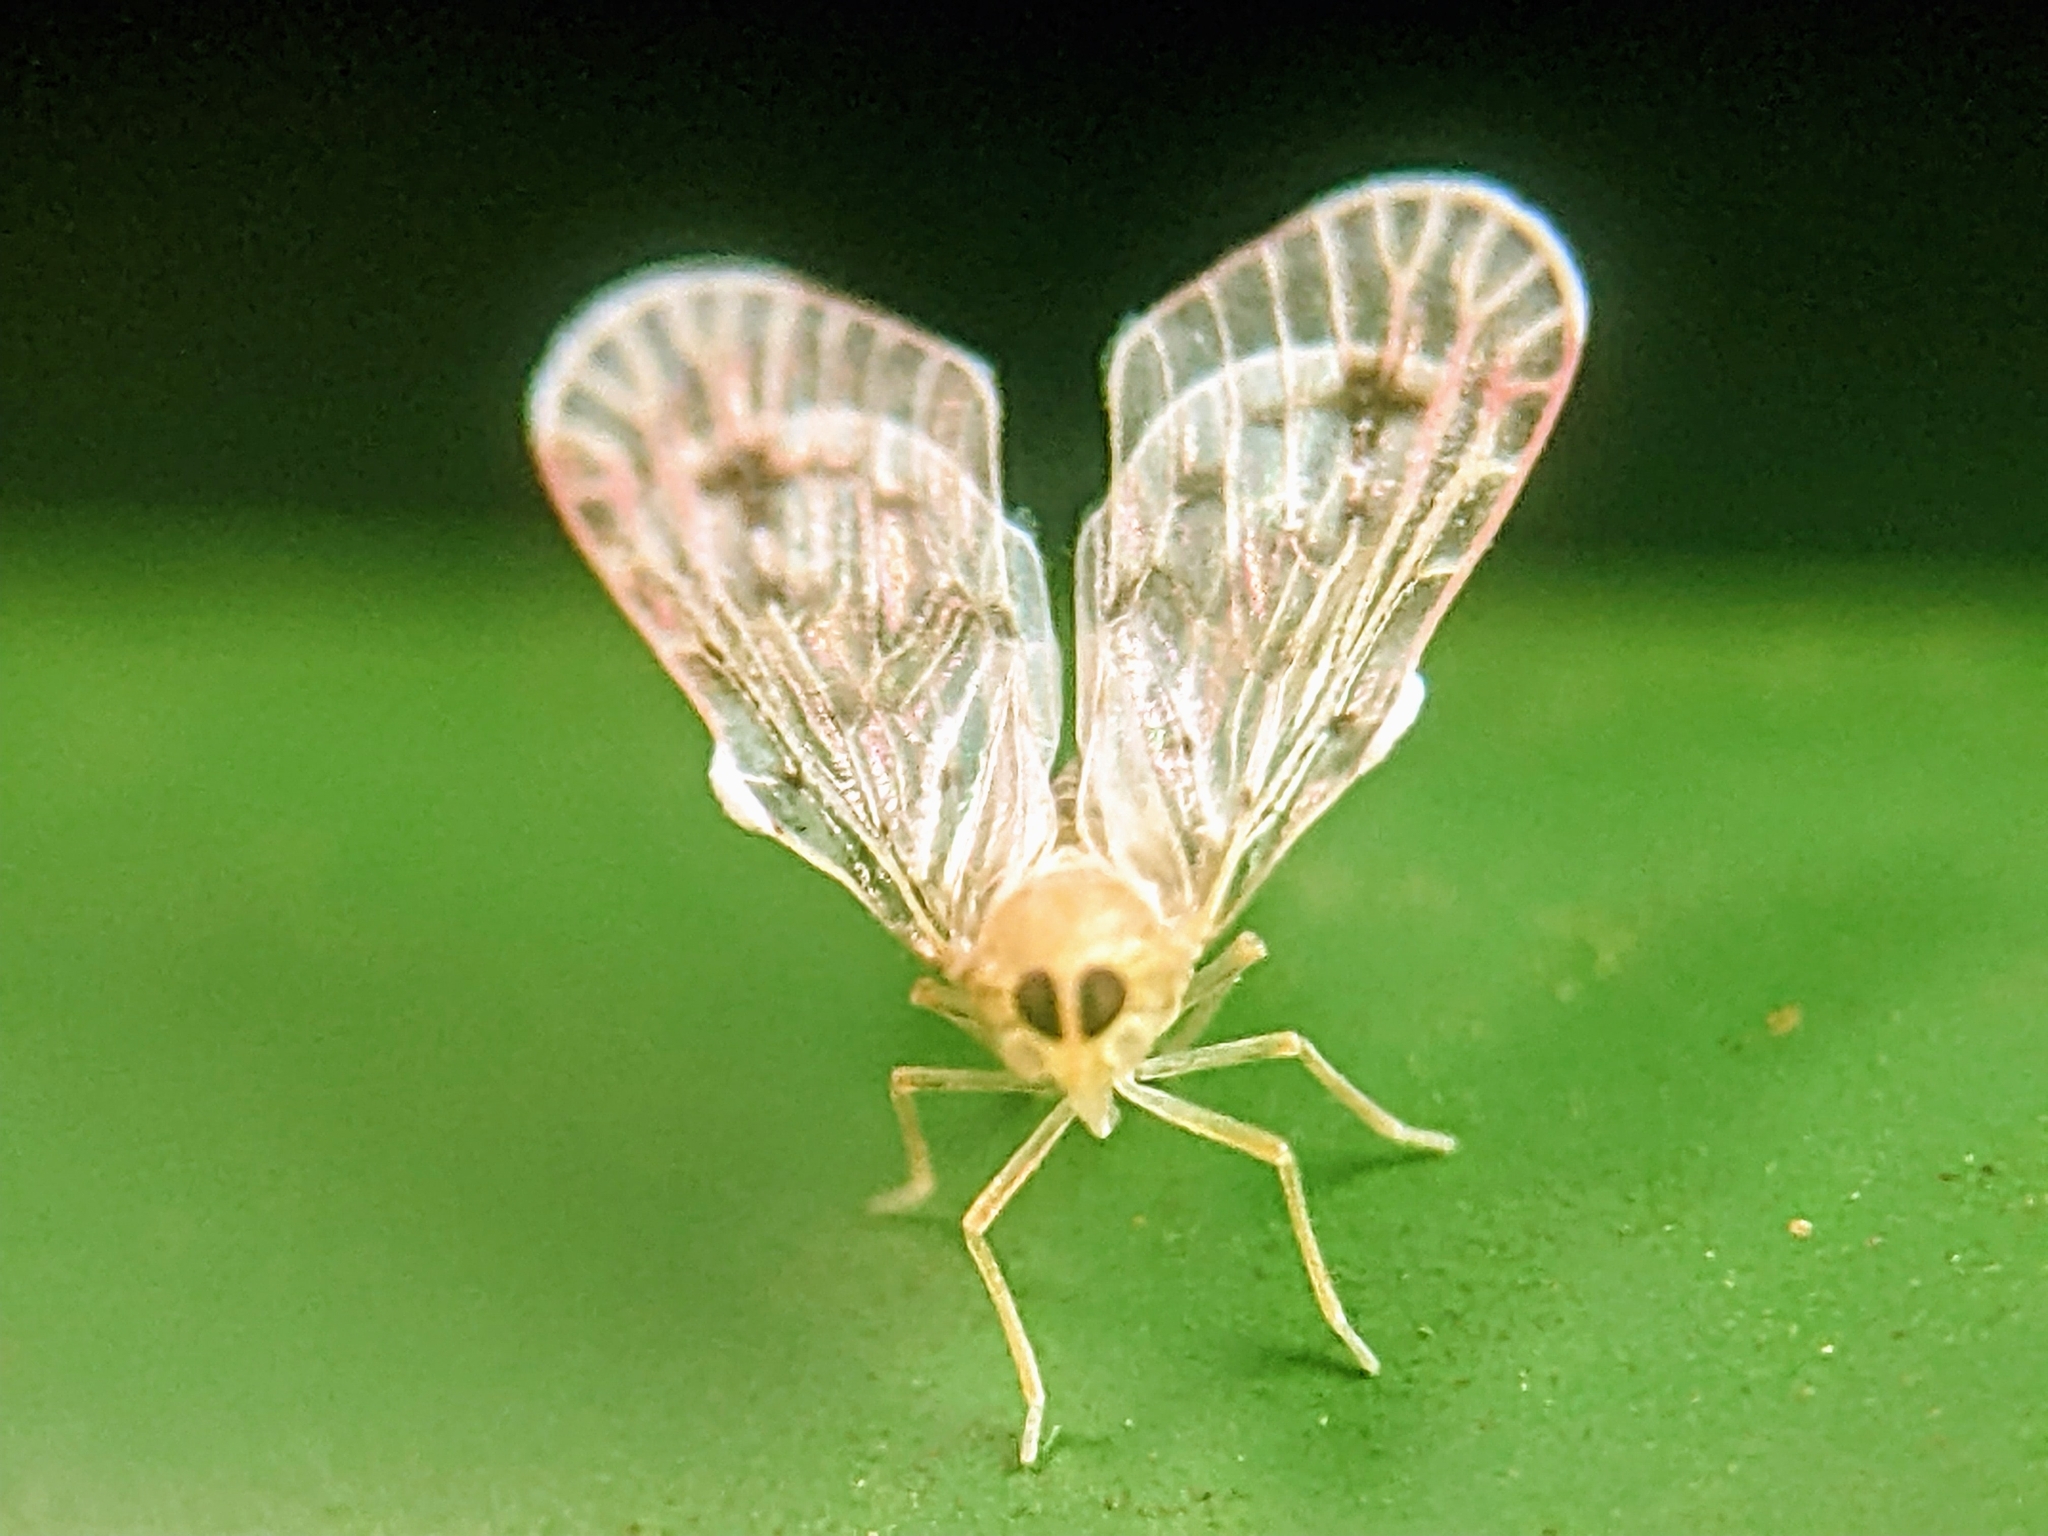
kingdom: Animalia
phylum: Arthropoda
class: Insecta
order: Hemiptera
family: Derbidae
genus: Levu
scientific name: Levu muiri
